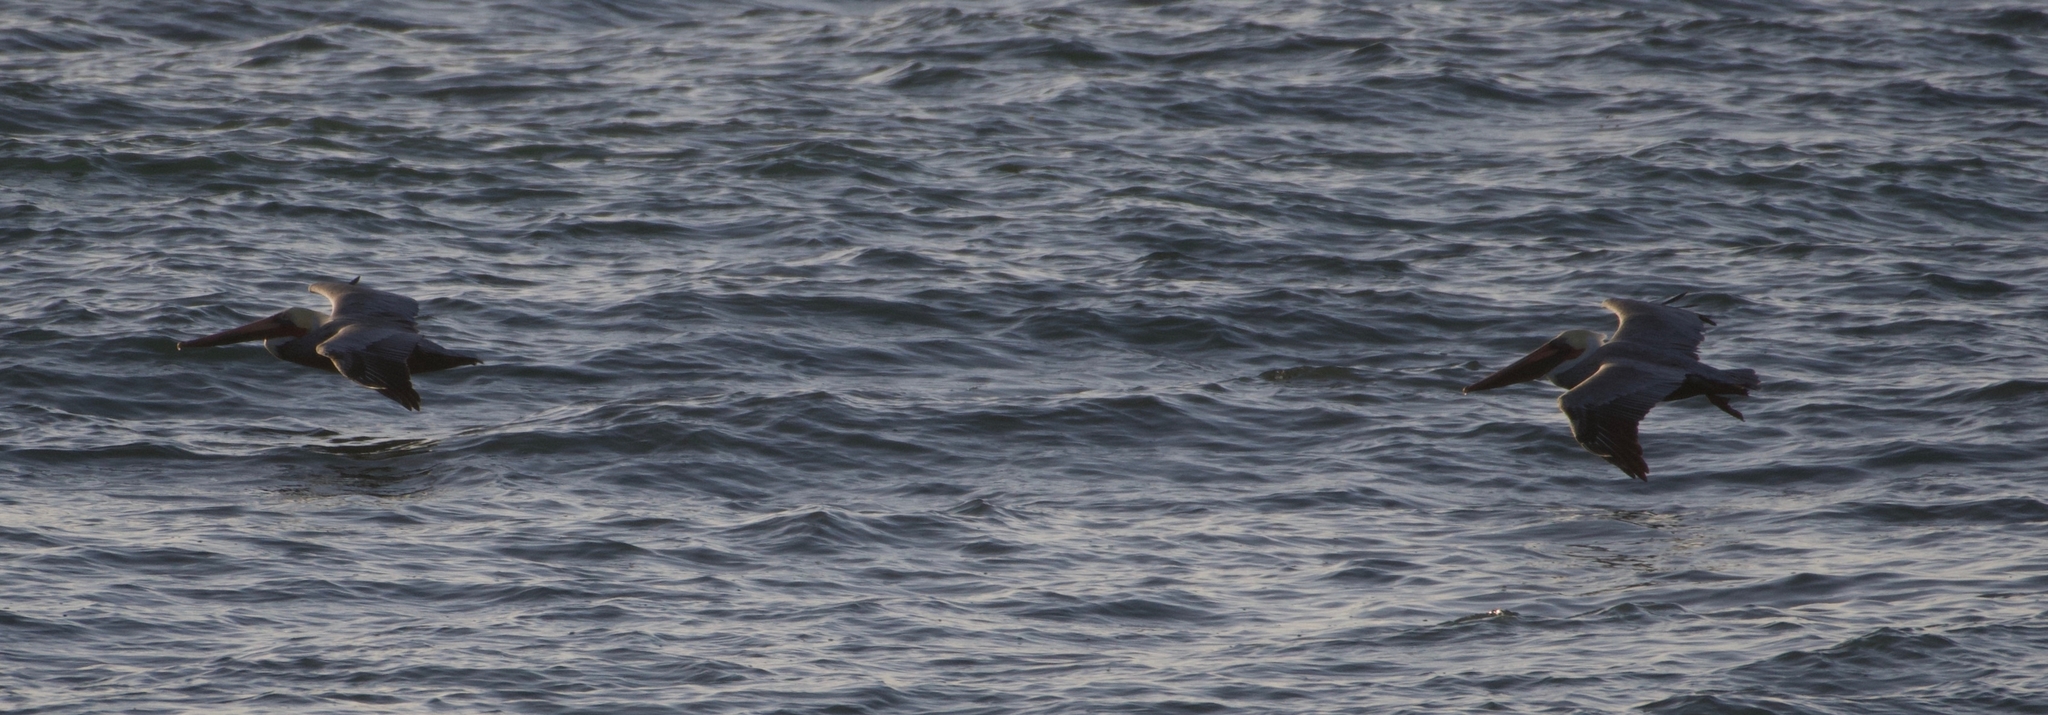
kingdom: Animalia
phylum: Chordata
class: Aves
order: Pelecaniformes
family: Pelecanidae
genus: Pelecanus
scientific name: Pelecanus occidentalis
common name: Brown pelican
